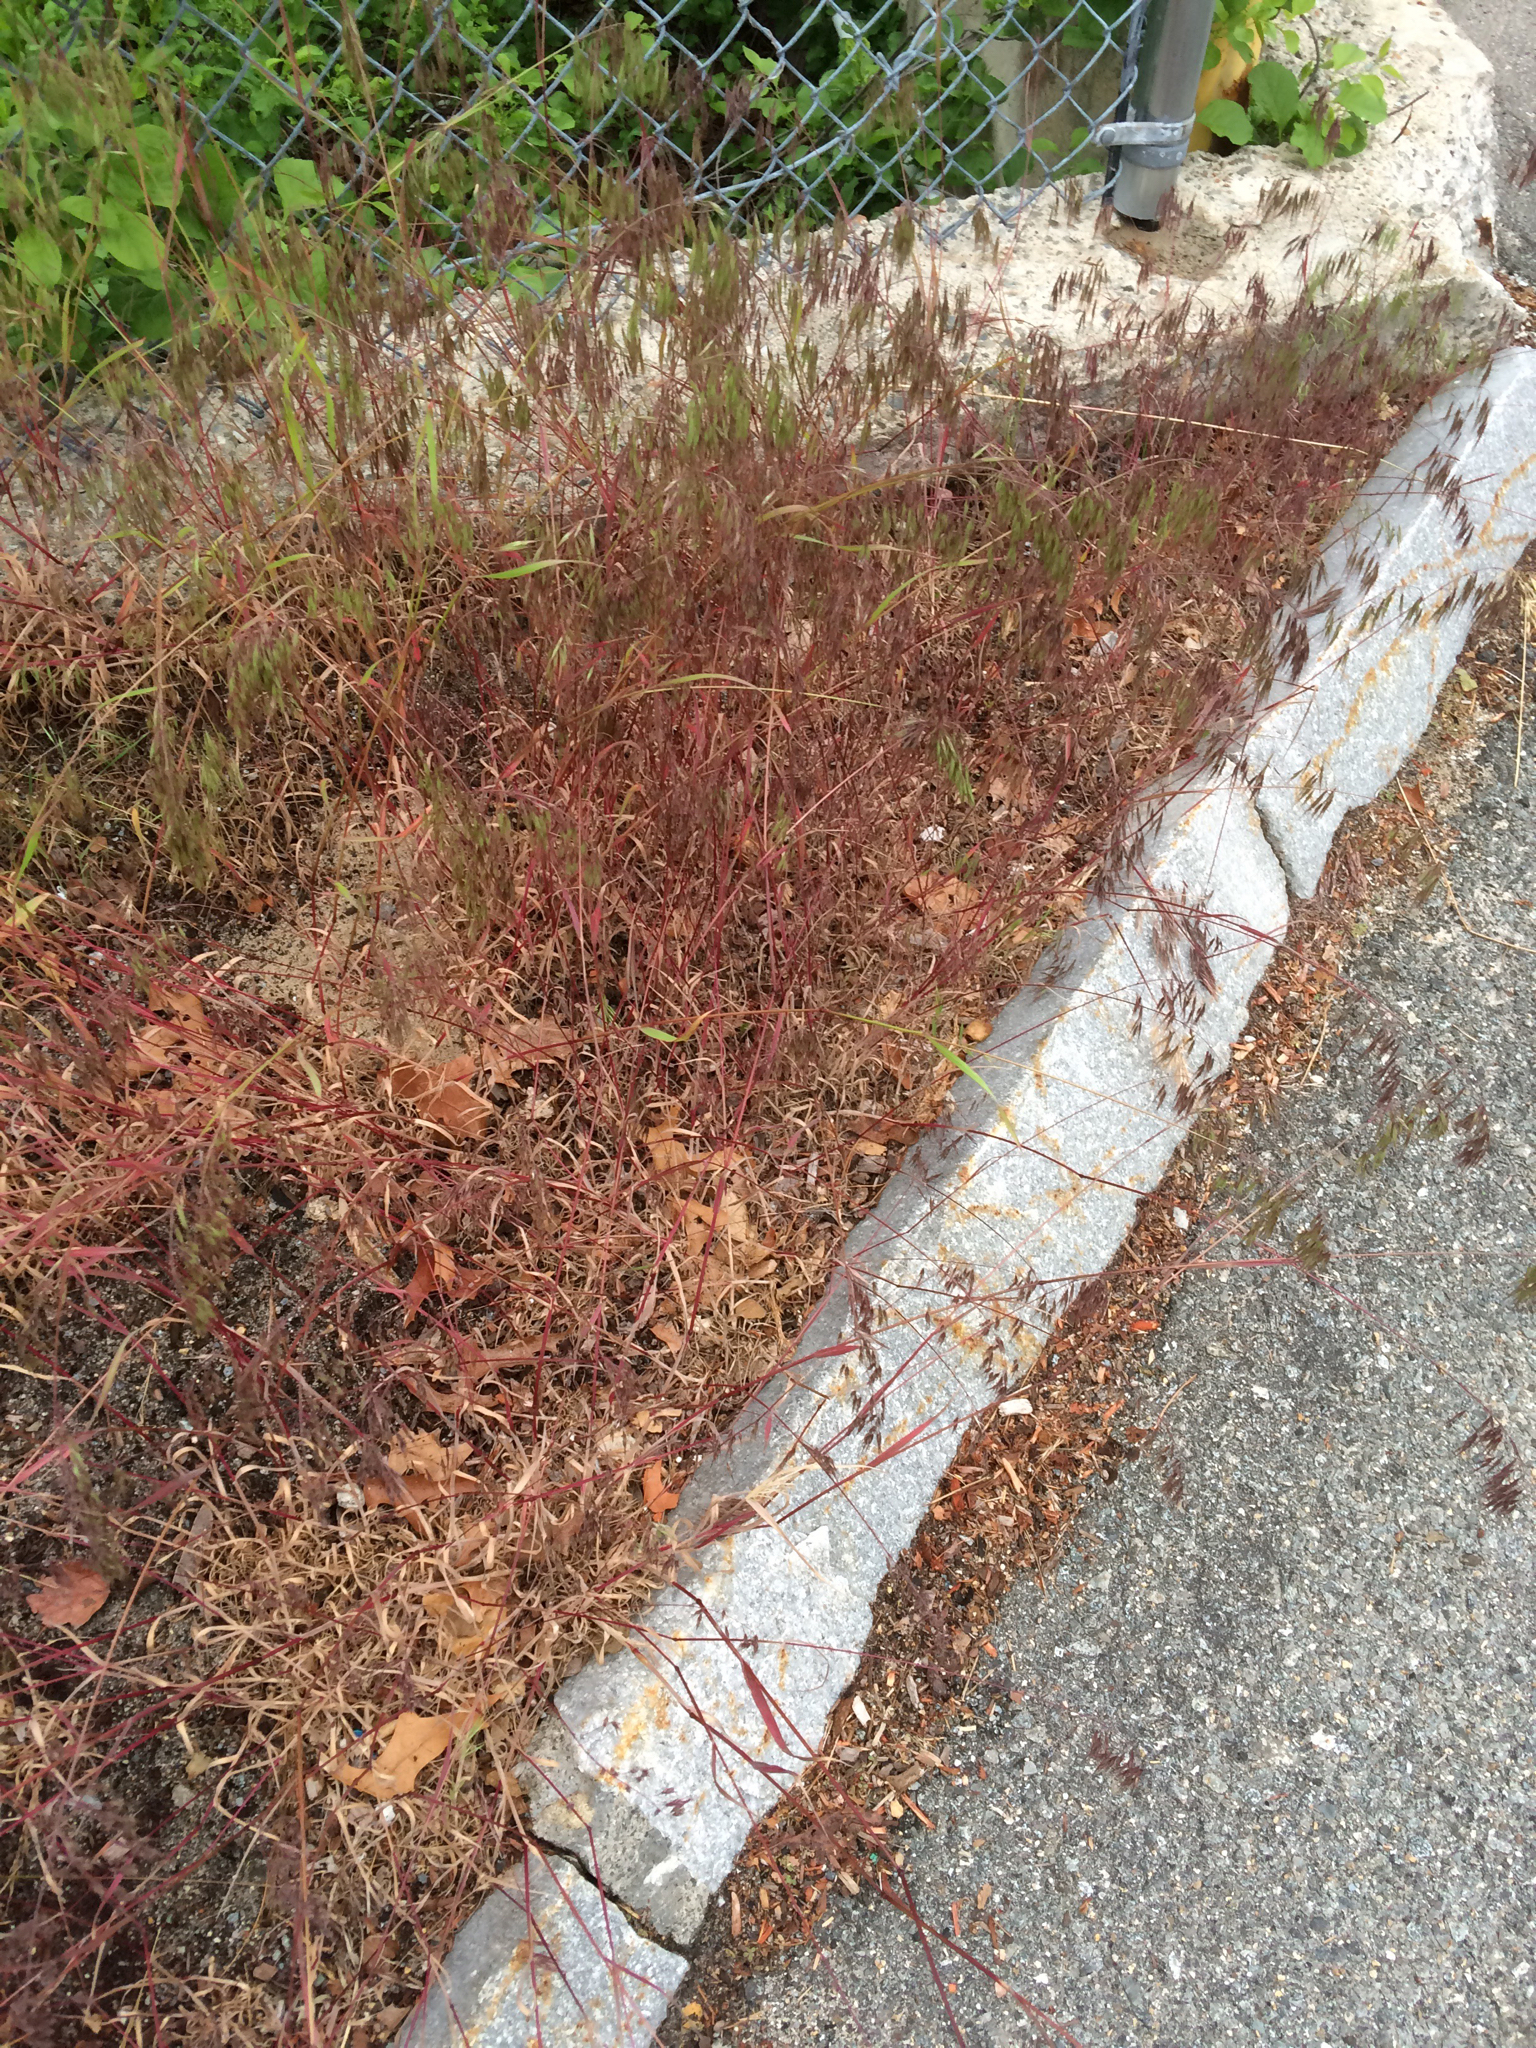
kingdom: Plantae
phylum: Tracheophyta
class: Liliopsida
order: Poales
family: Poaceae
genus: Bromus
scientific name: Bromus tectorum
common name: Cheatgrass
